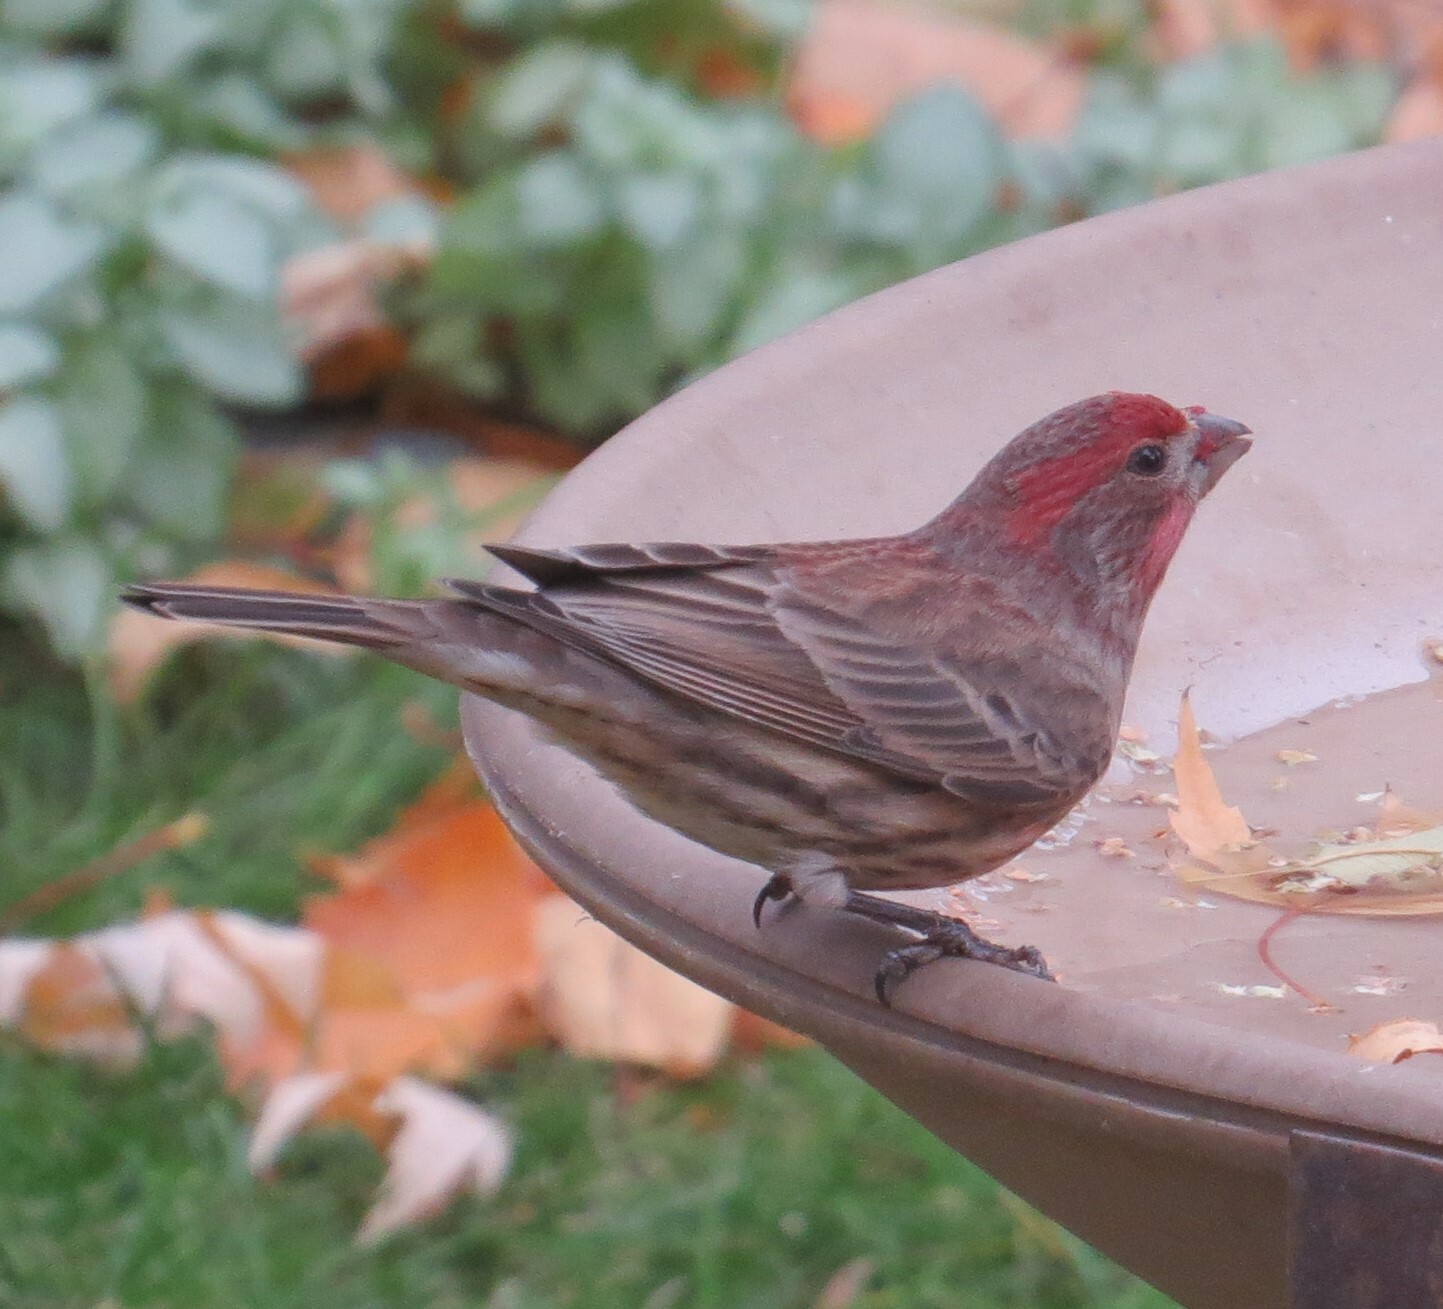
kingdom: Animalia
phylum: Chordata
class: Aves
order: Passeriformes
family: Fringillidae
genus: Haemorhous
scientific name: Haemorhous mexicanus
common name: House finch
